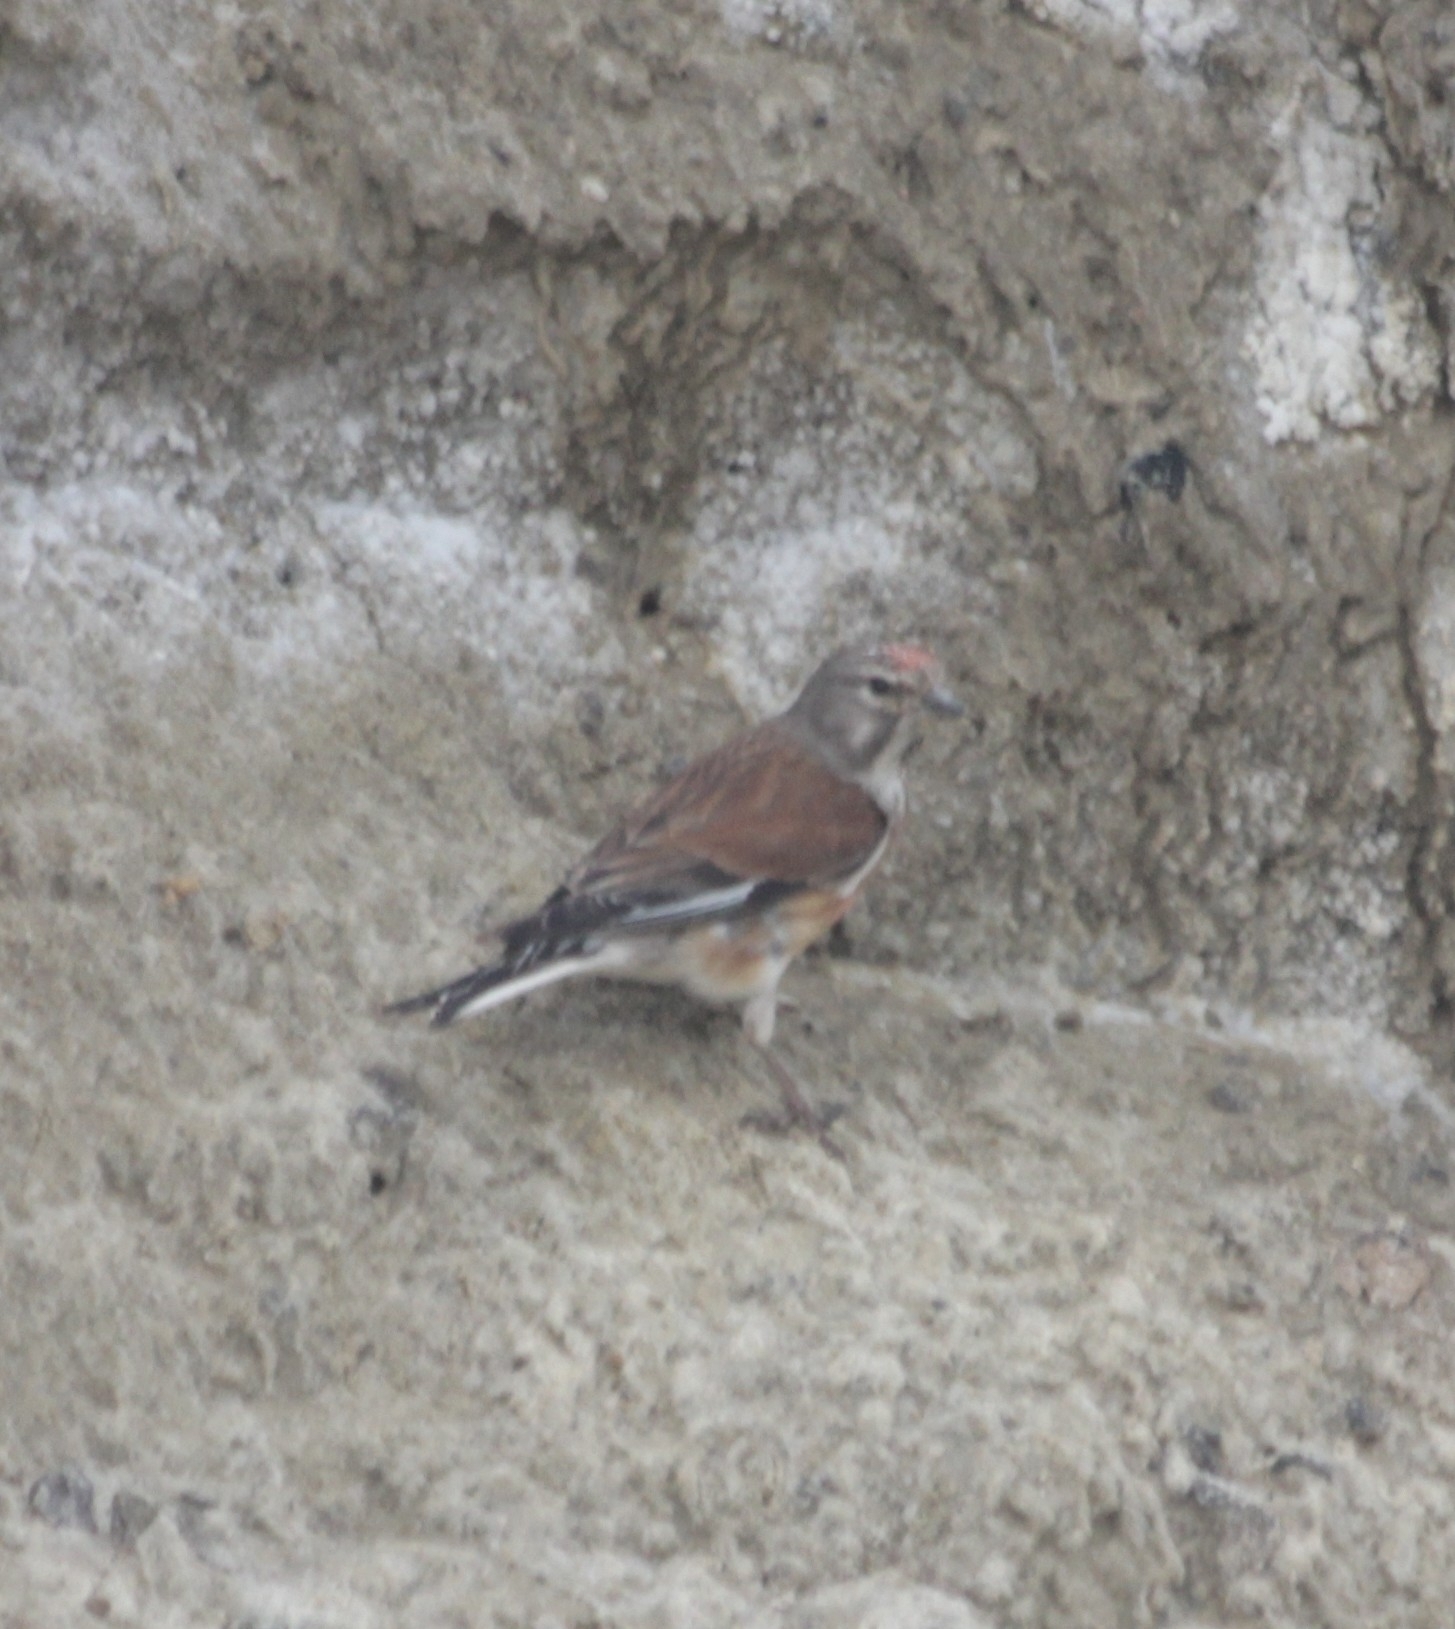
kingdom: Animalia
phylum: Chordata
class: Aves
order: Passeriformes
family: Fringillidae
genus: Linaria
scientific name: Linaria cannabina
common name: Common linnet
